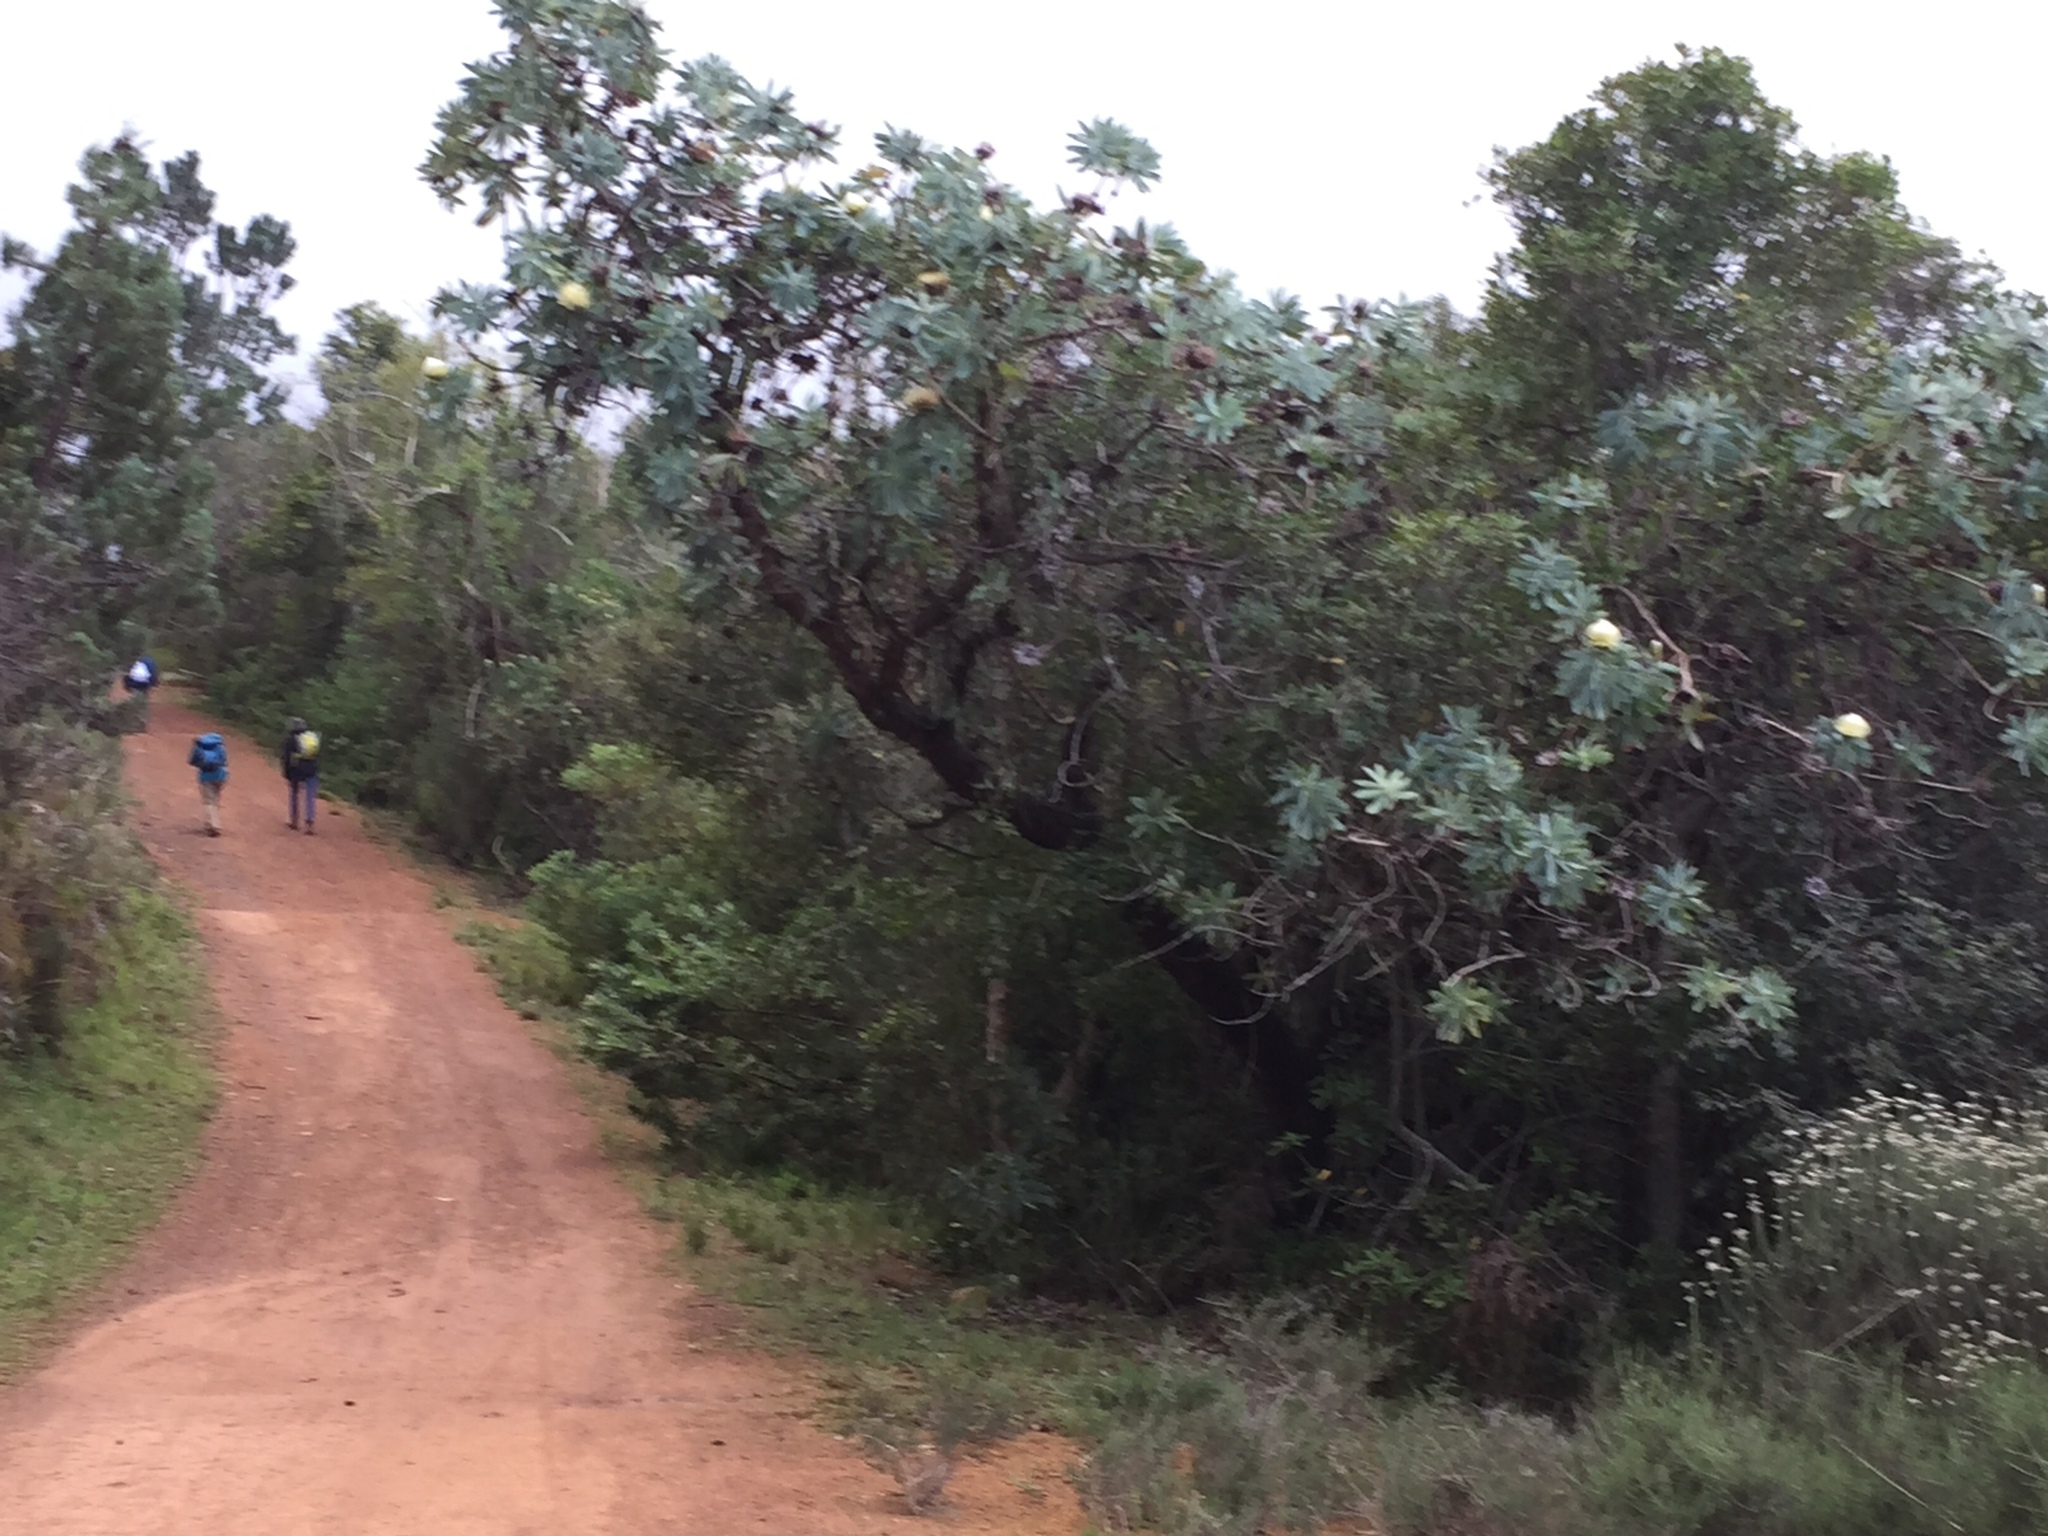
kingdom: Plantae
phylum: Tracheophyta
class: Magnoliopsida
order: Proteales
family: Proteaceae
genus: Protea
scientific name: Protea nitida
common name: Tree protea
